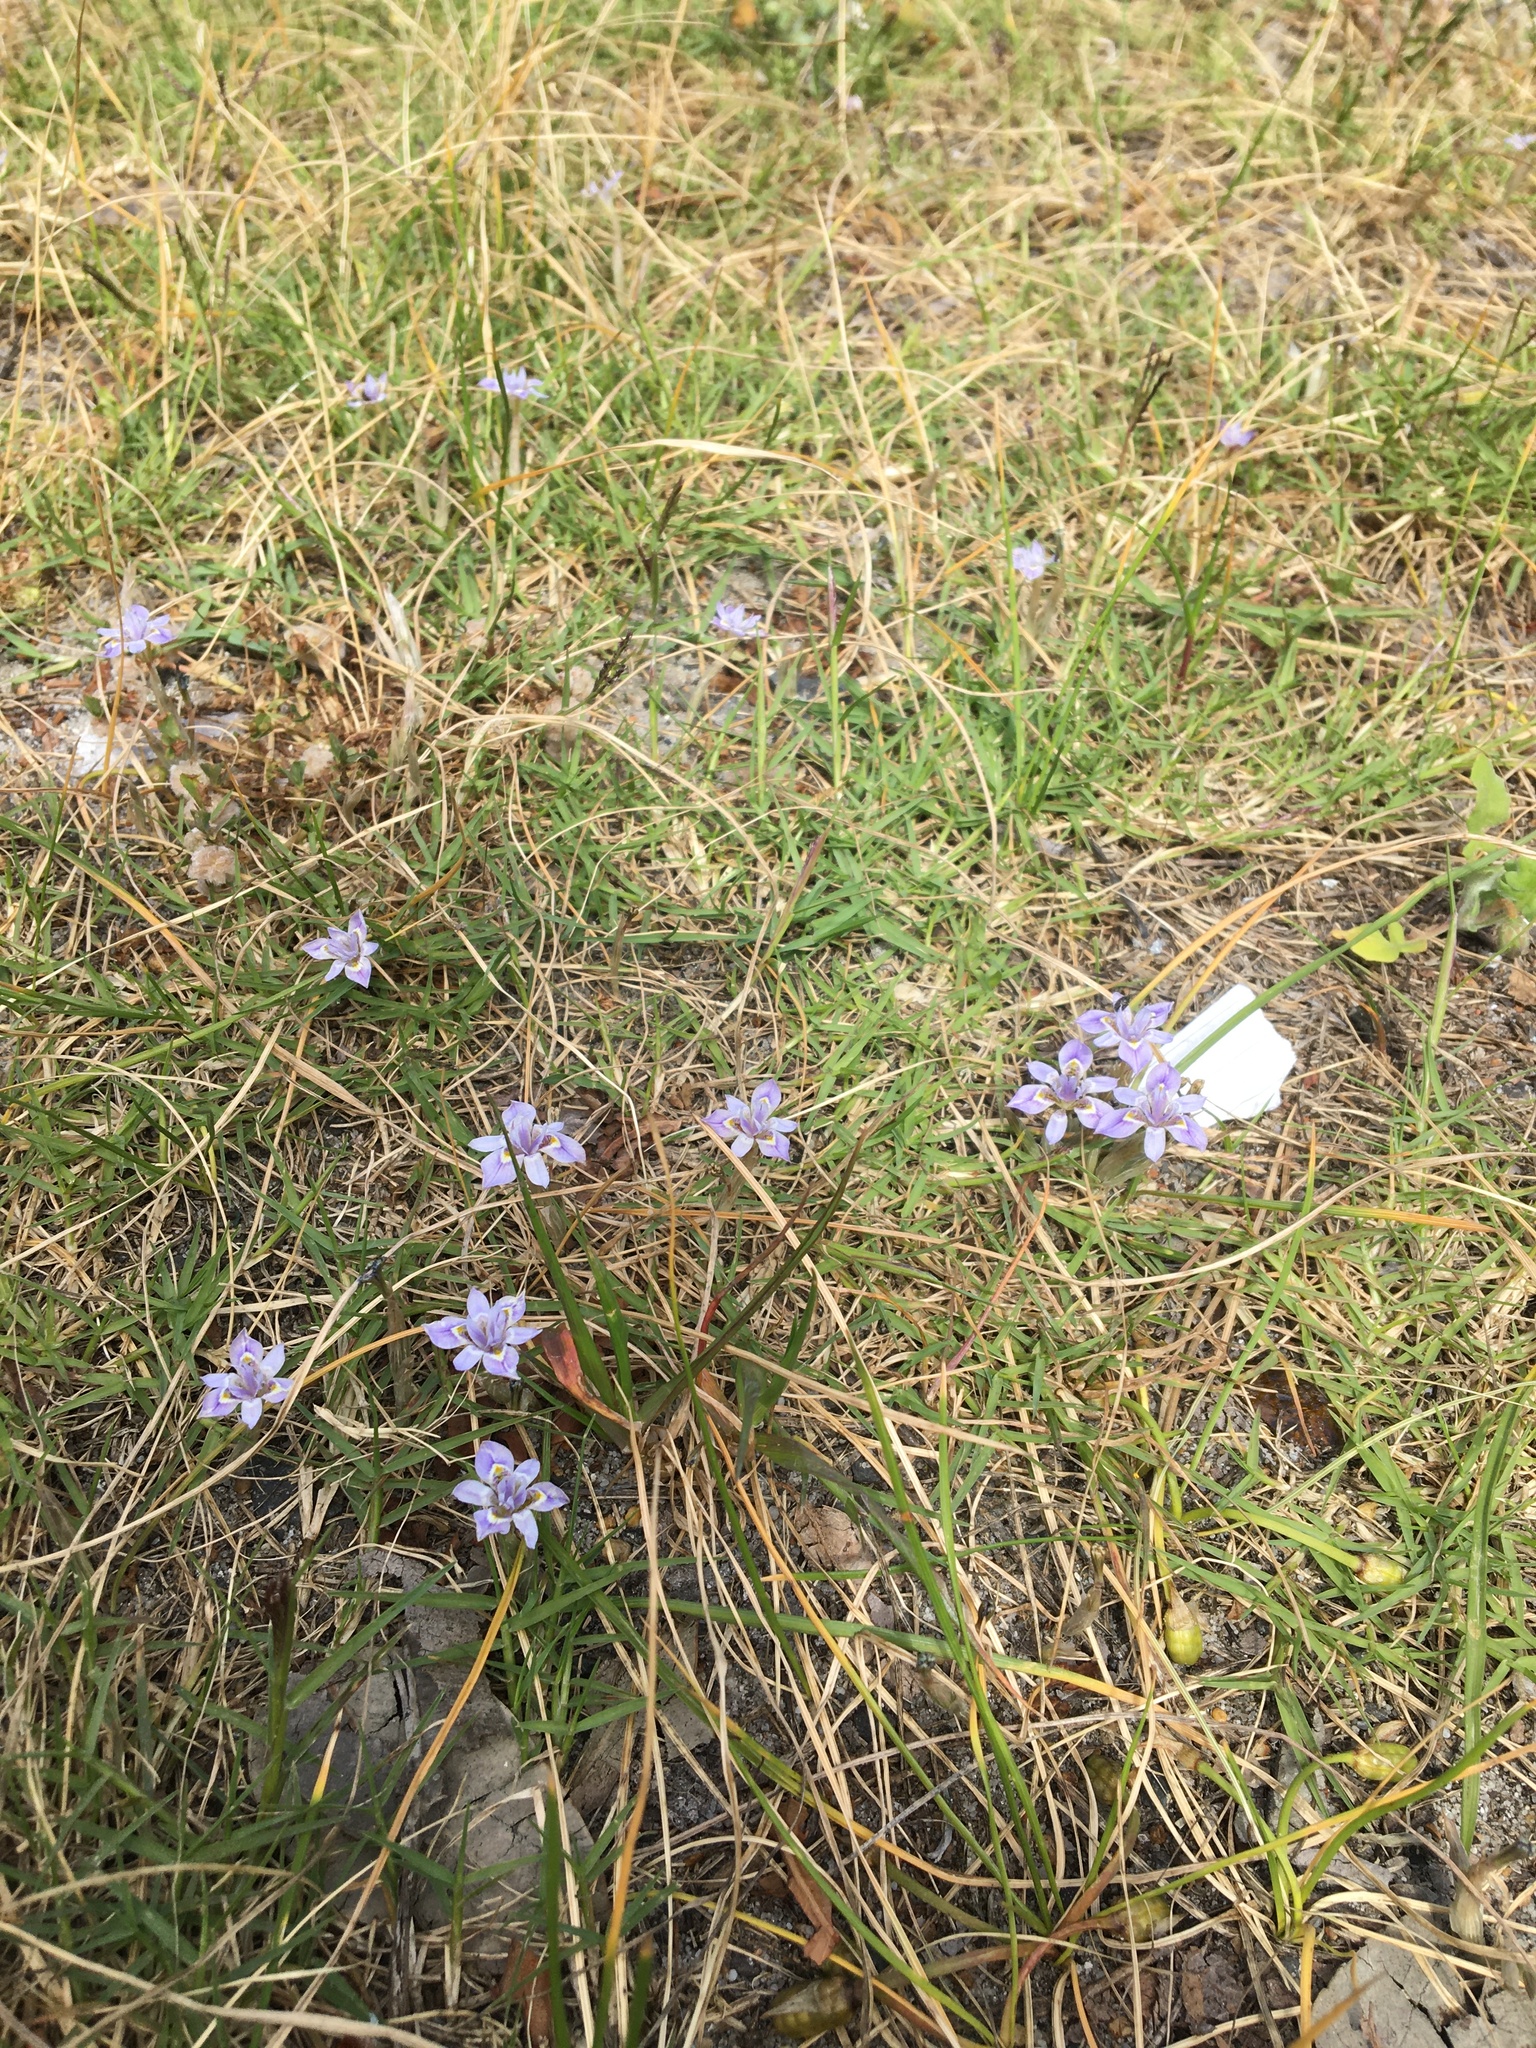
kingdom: Plantae
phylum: Tracheophyta
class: Liliopsida
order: Asparagales
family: Iridaceae
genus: Moraea
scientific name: Moraea setifolia
